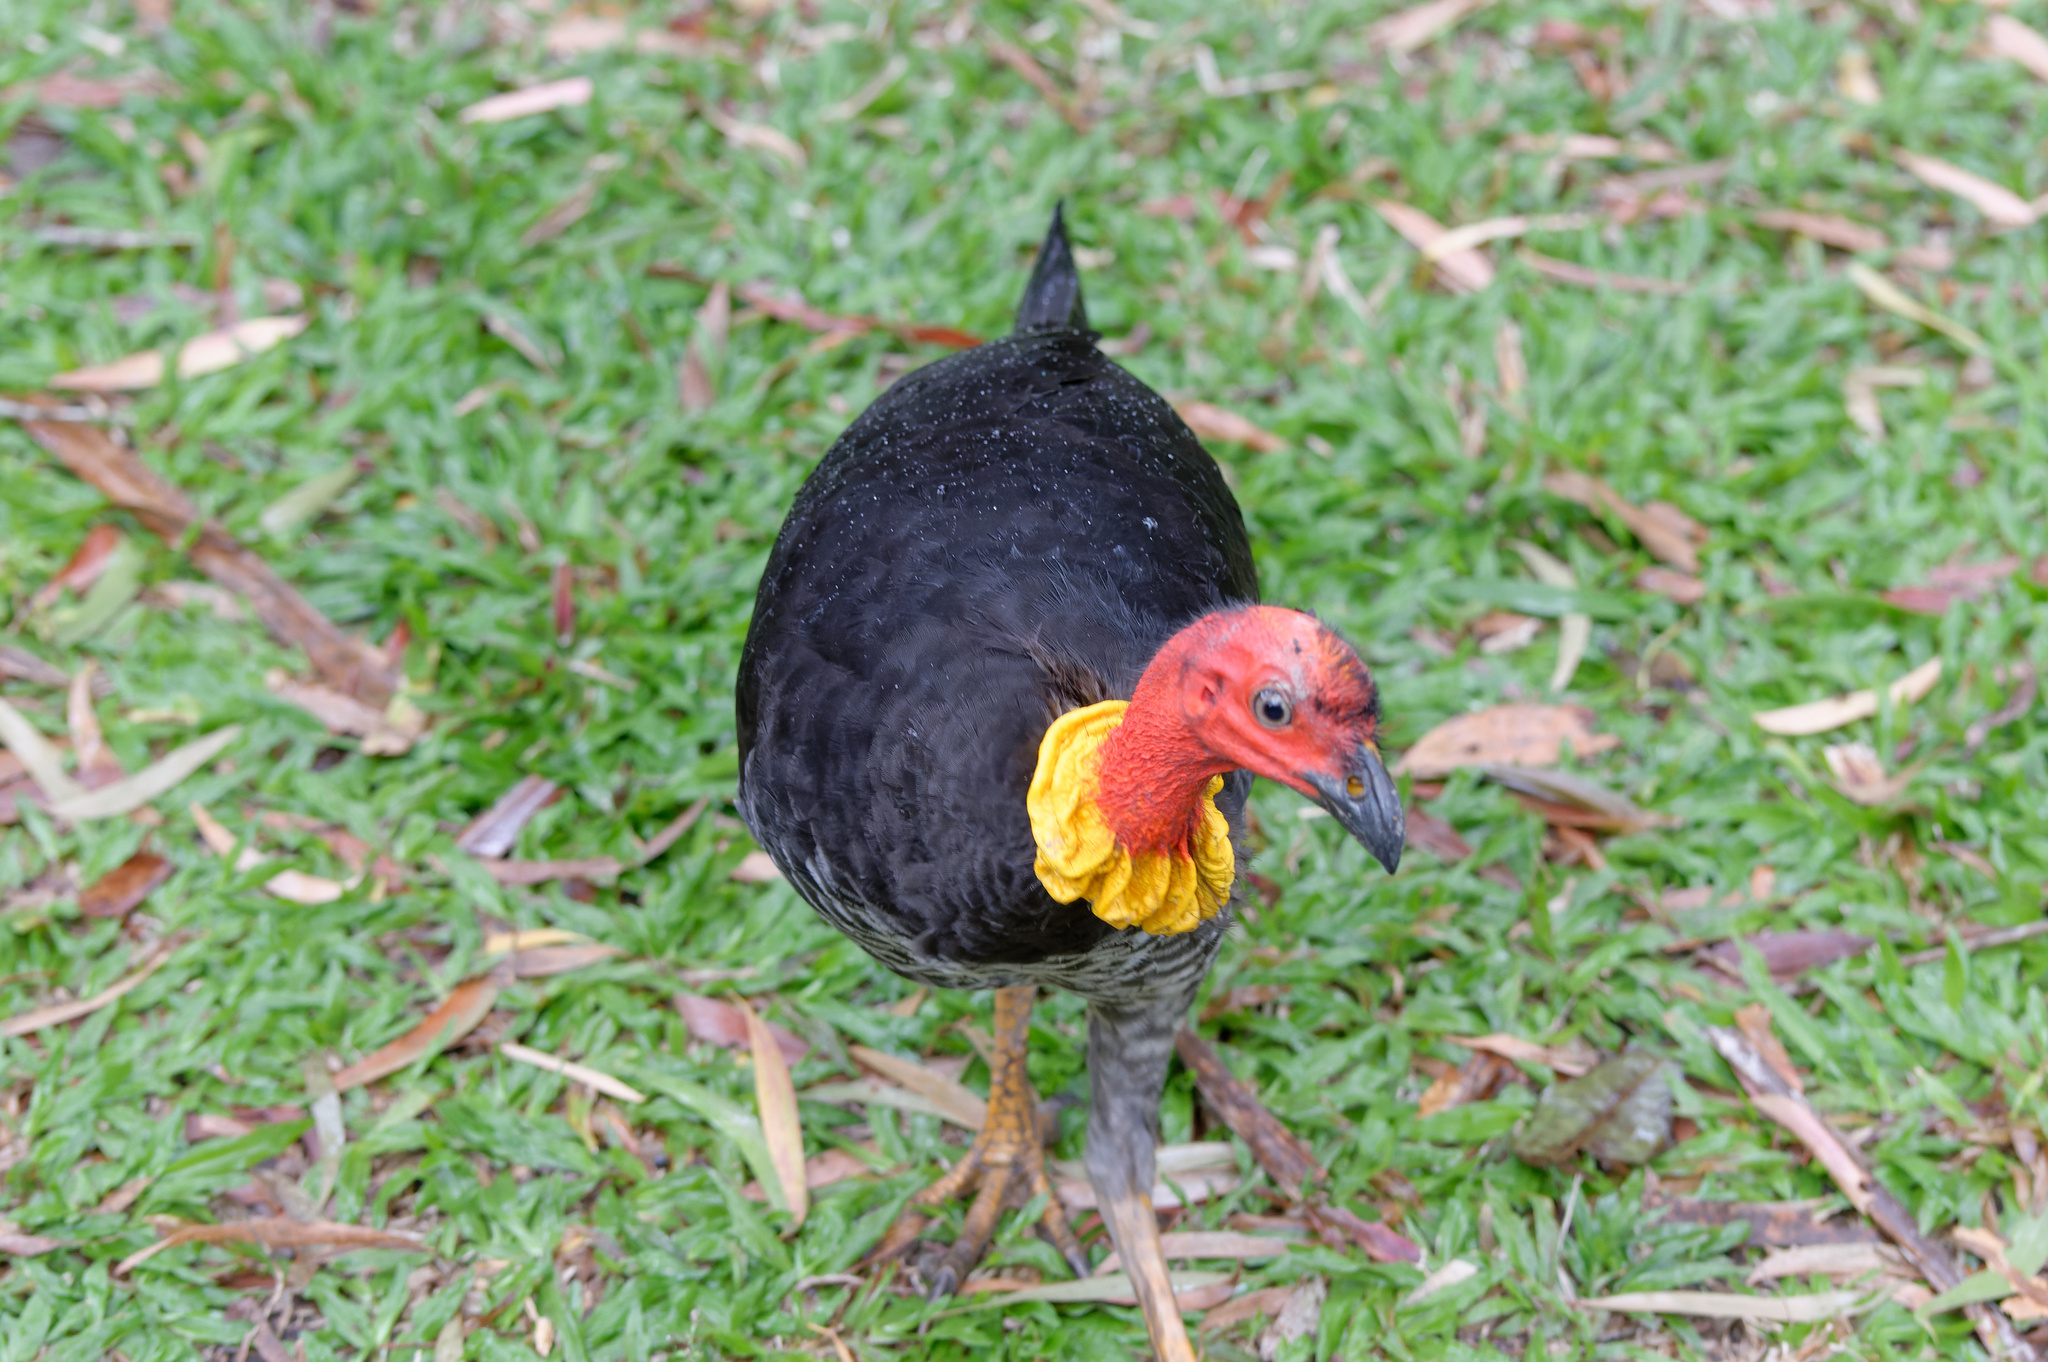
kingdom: Animalia
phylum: Chordata
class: Aves
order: Galliformes
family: Megapodiidae
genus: Alectura
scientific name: Alectura lathami
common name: Australian brushturkey
